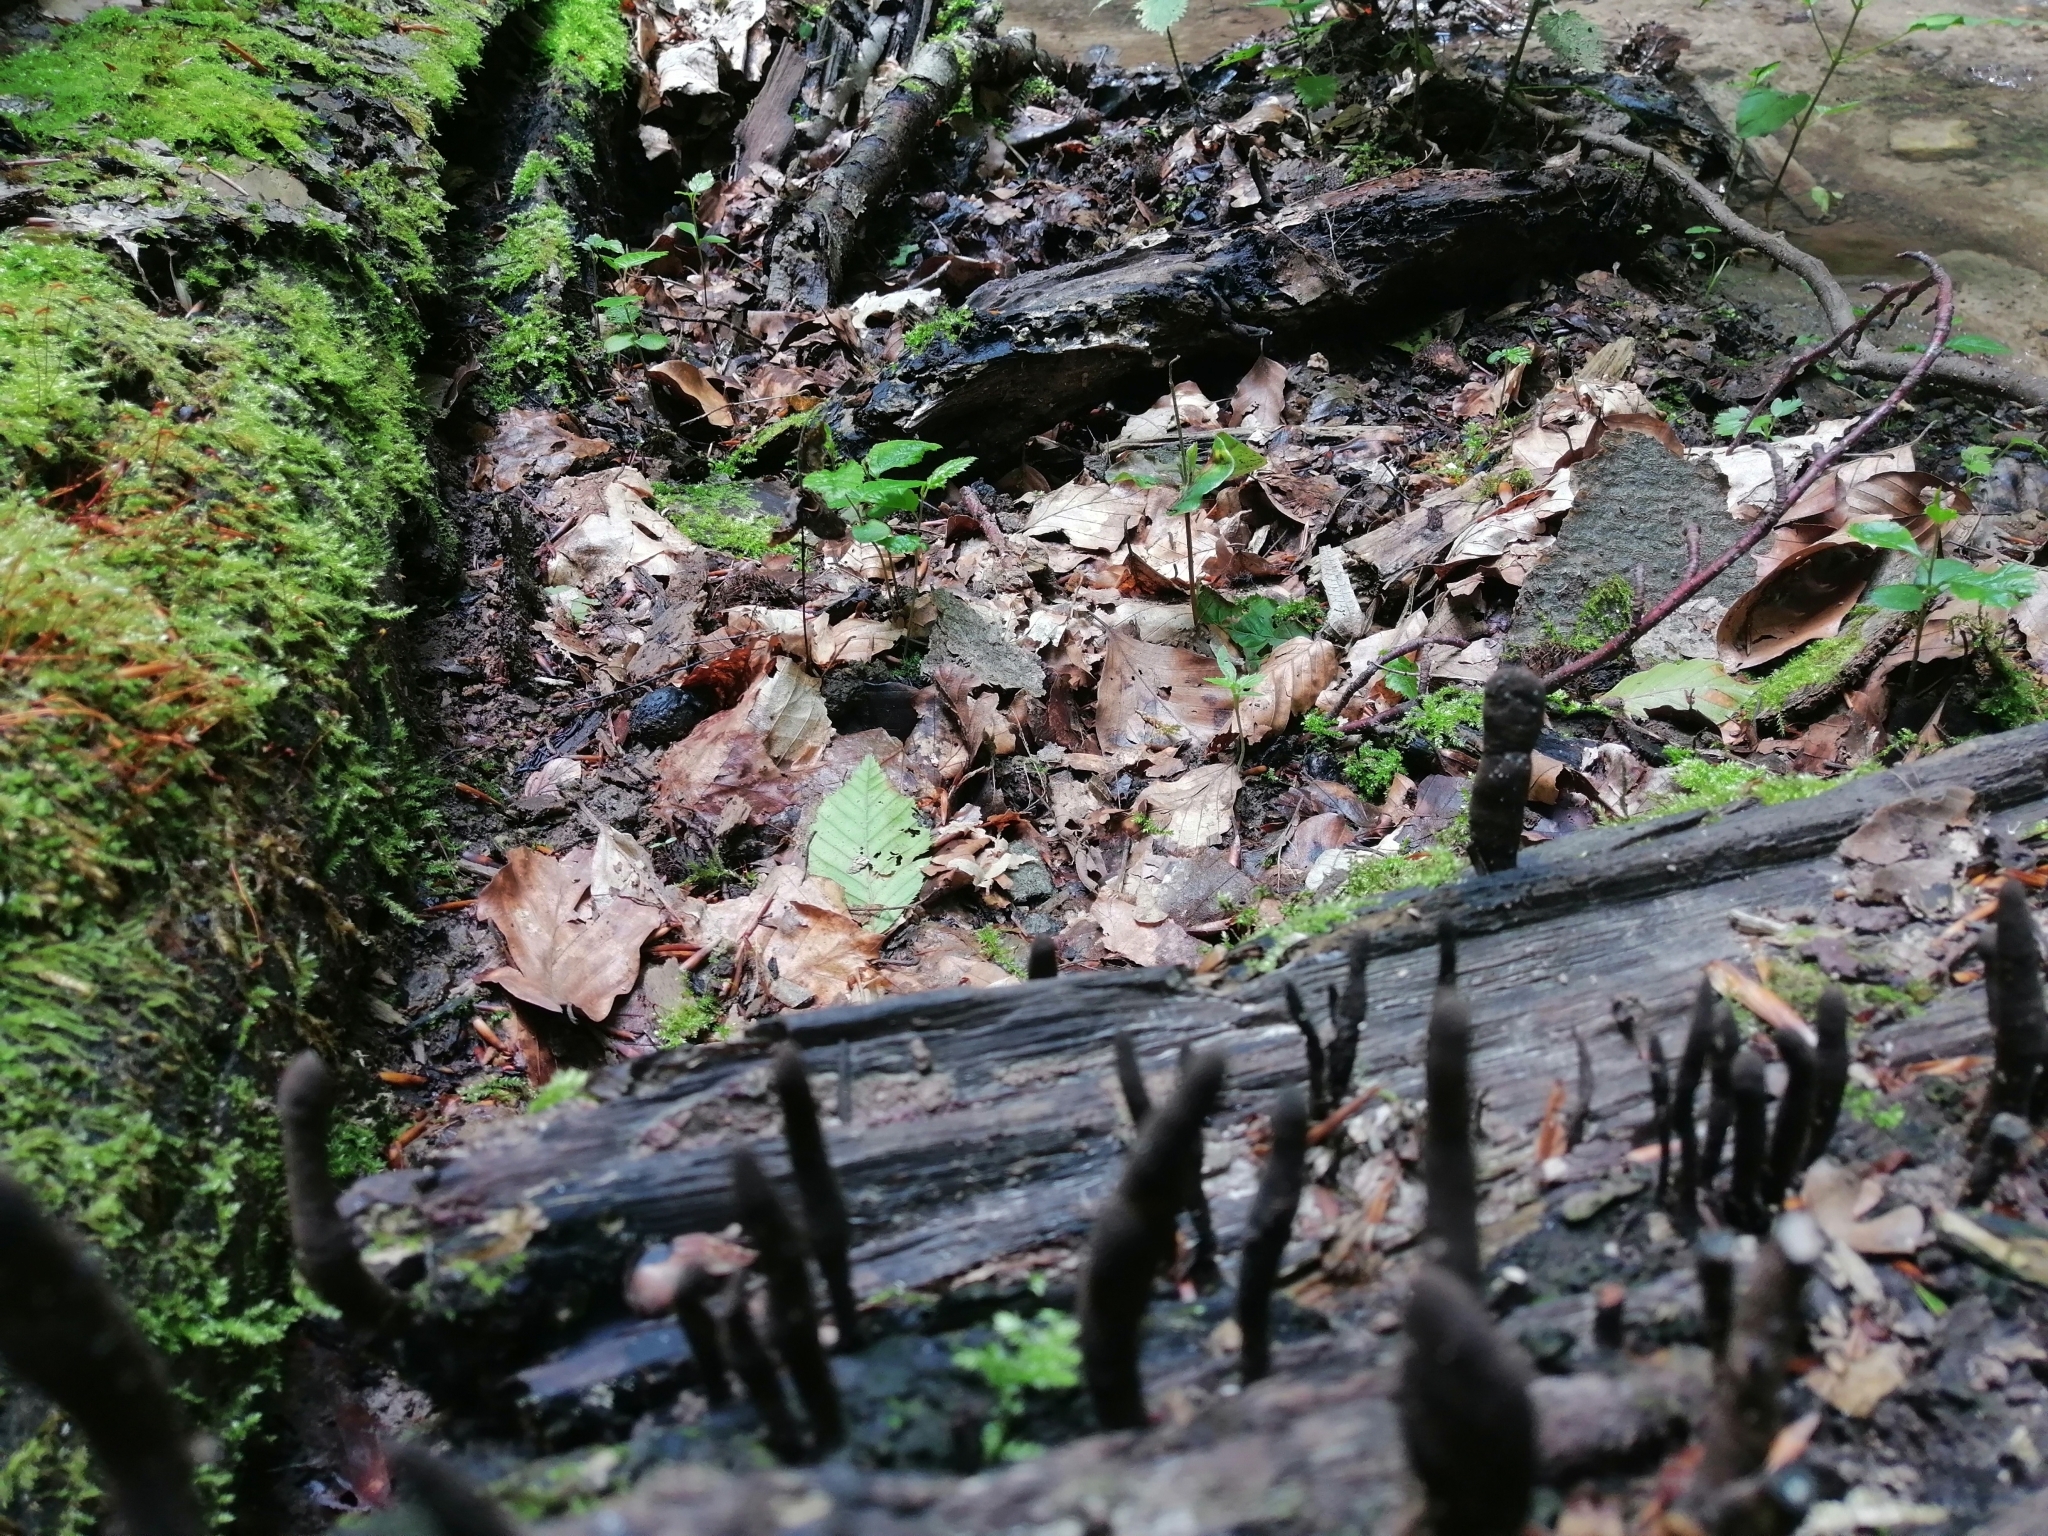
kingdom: Fungi
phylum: Ascomycota
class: Sordariomycetes
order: Xylariales
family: Xylariaceae
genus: Xylaria
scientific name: Xylaria polymorpha
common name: Dead man's fingers
